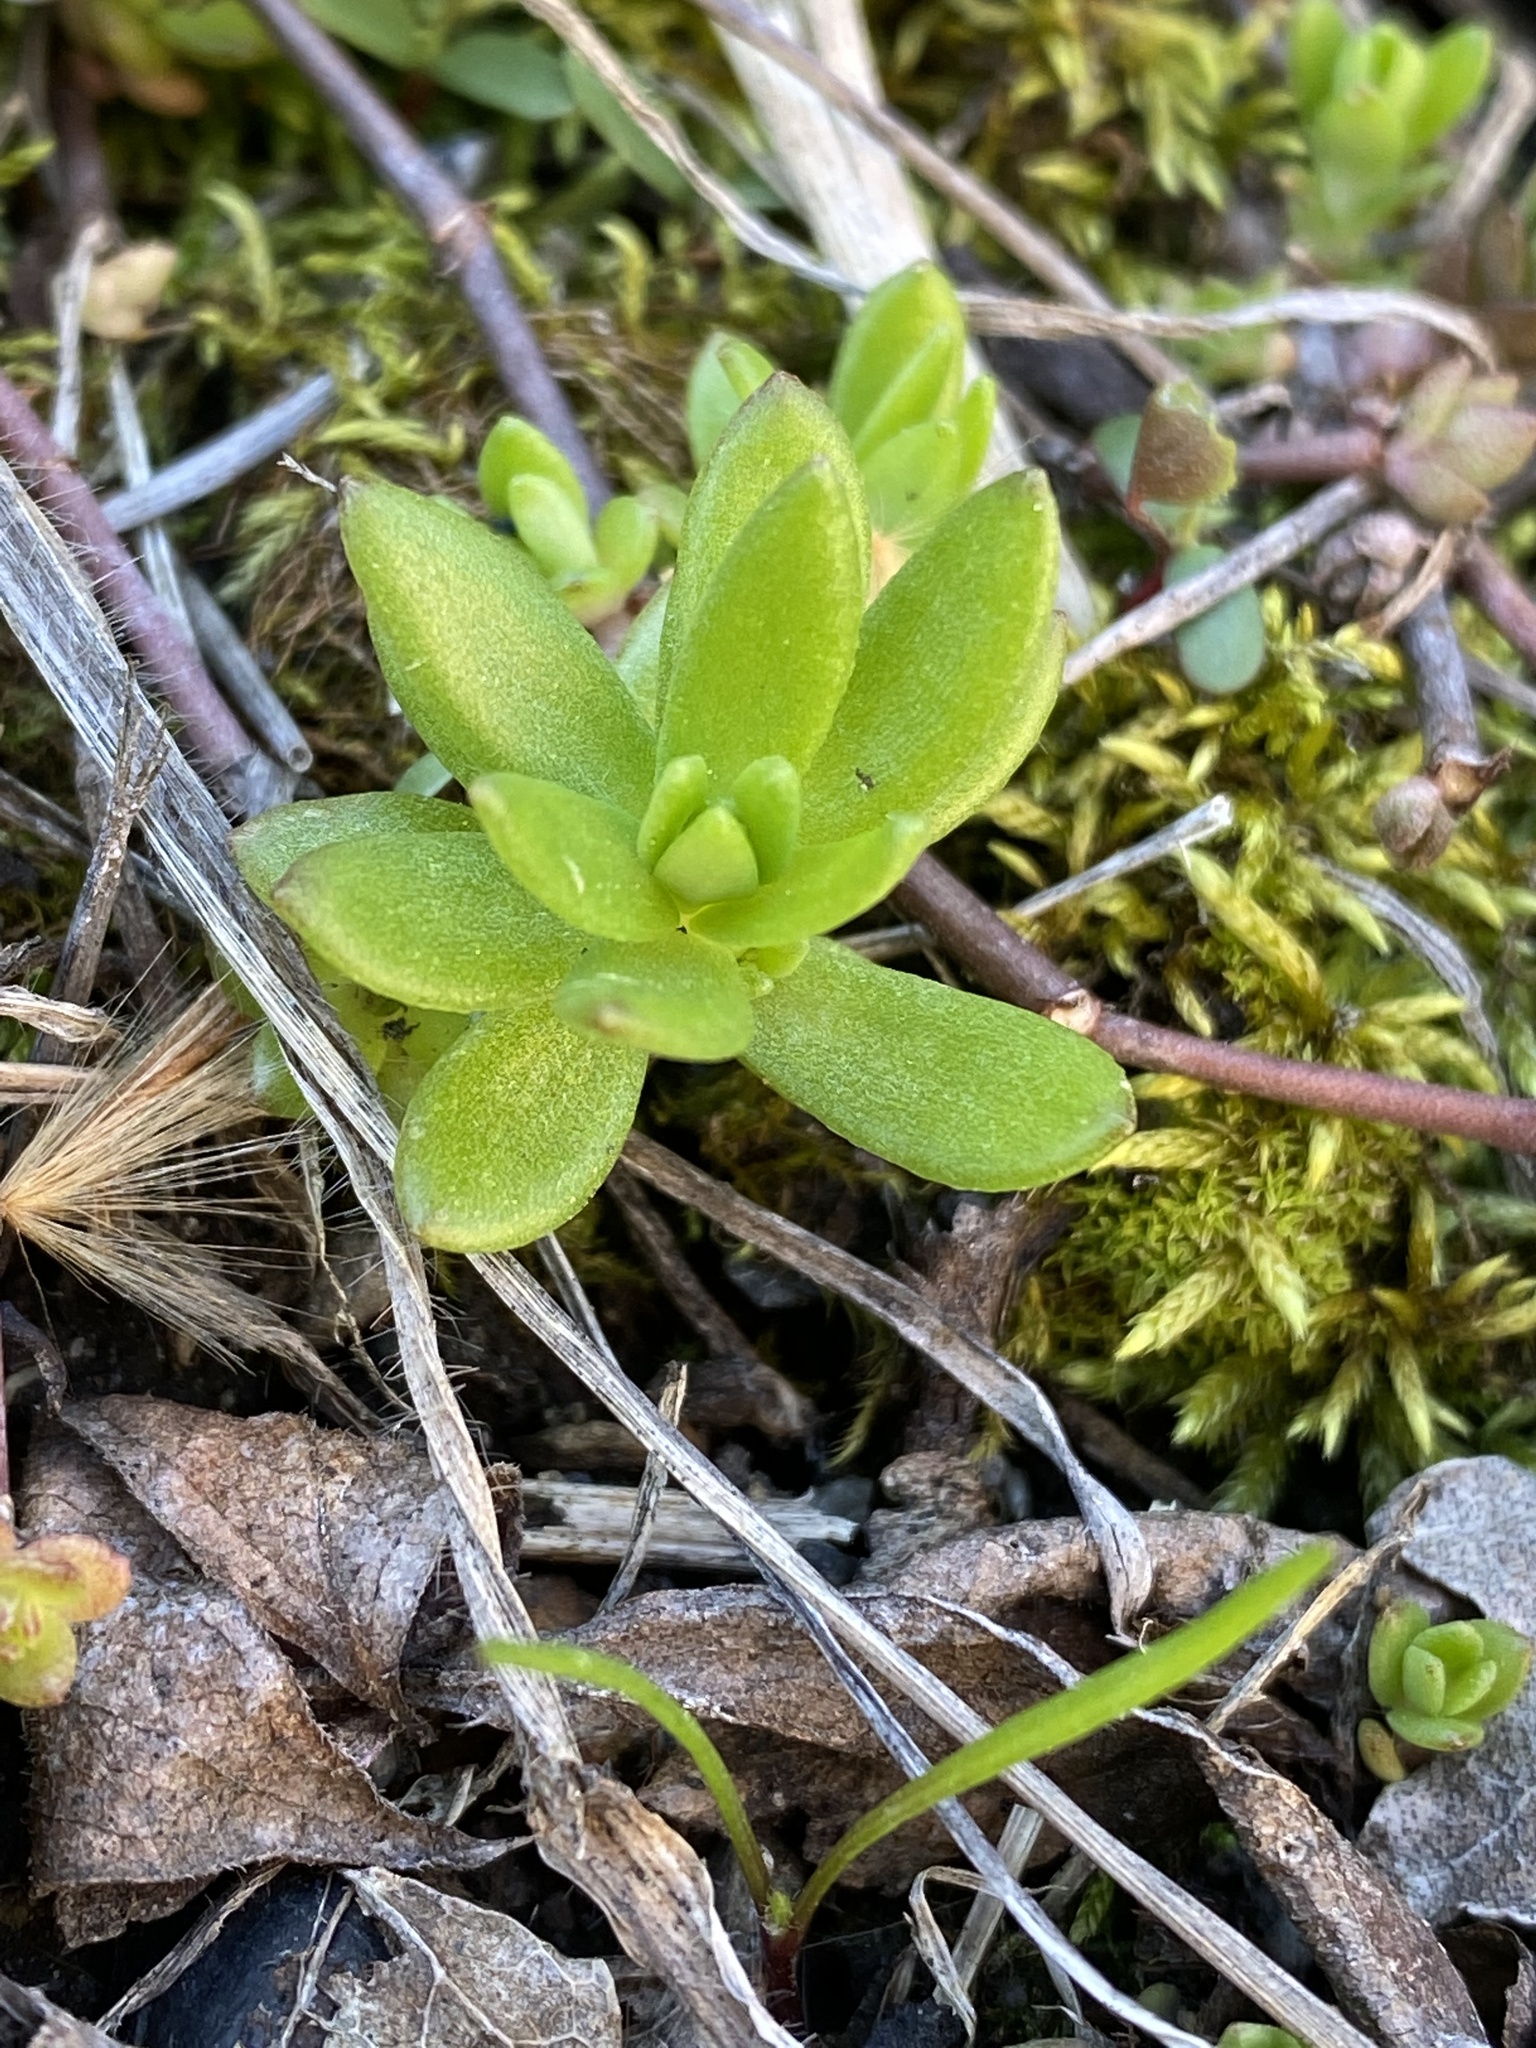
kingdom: Plantae
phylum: Tracheophyta
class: Magnoliopsida
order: Saxifragales
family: Crassulaceae
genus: Sedum
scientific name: Sedum sarmentosum
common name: Stringy stonecrop
